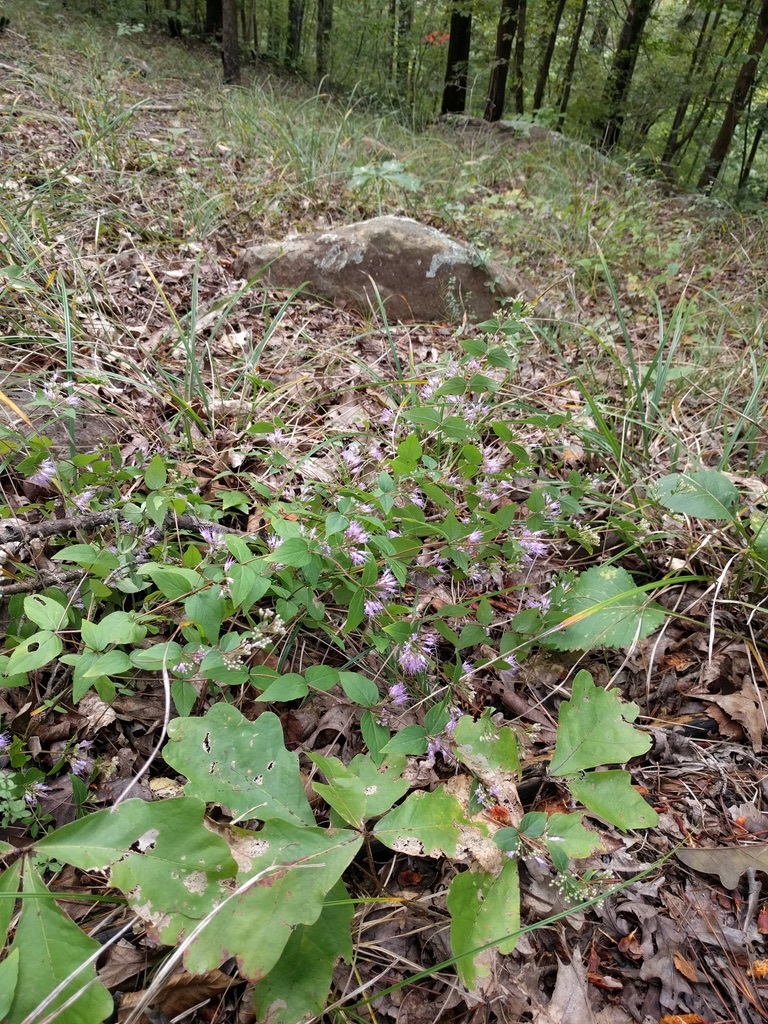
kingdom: Plantae
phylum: Tracheophyta
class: Magnoliopsida
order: Lamiales
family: Lamiaceae
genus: Cunila
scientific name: Cunila origanoides
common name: American dittany
